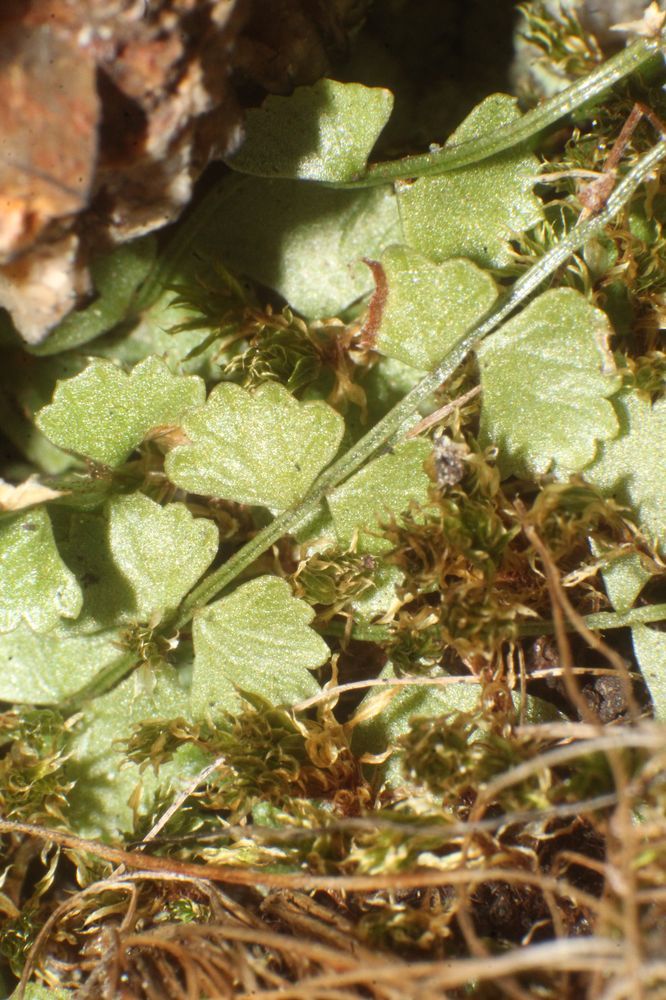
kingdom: Plantae
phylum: Tracheophyta
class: Polypodiopsida
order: Polypodiales
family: Aspleniaceae
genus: Asplenium
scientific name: Asplenium flabellifolium
